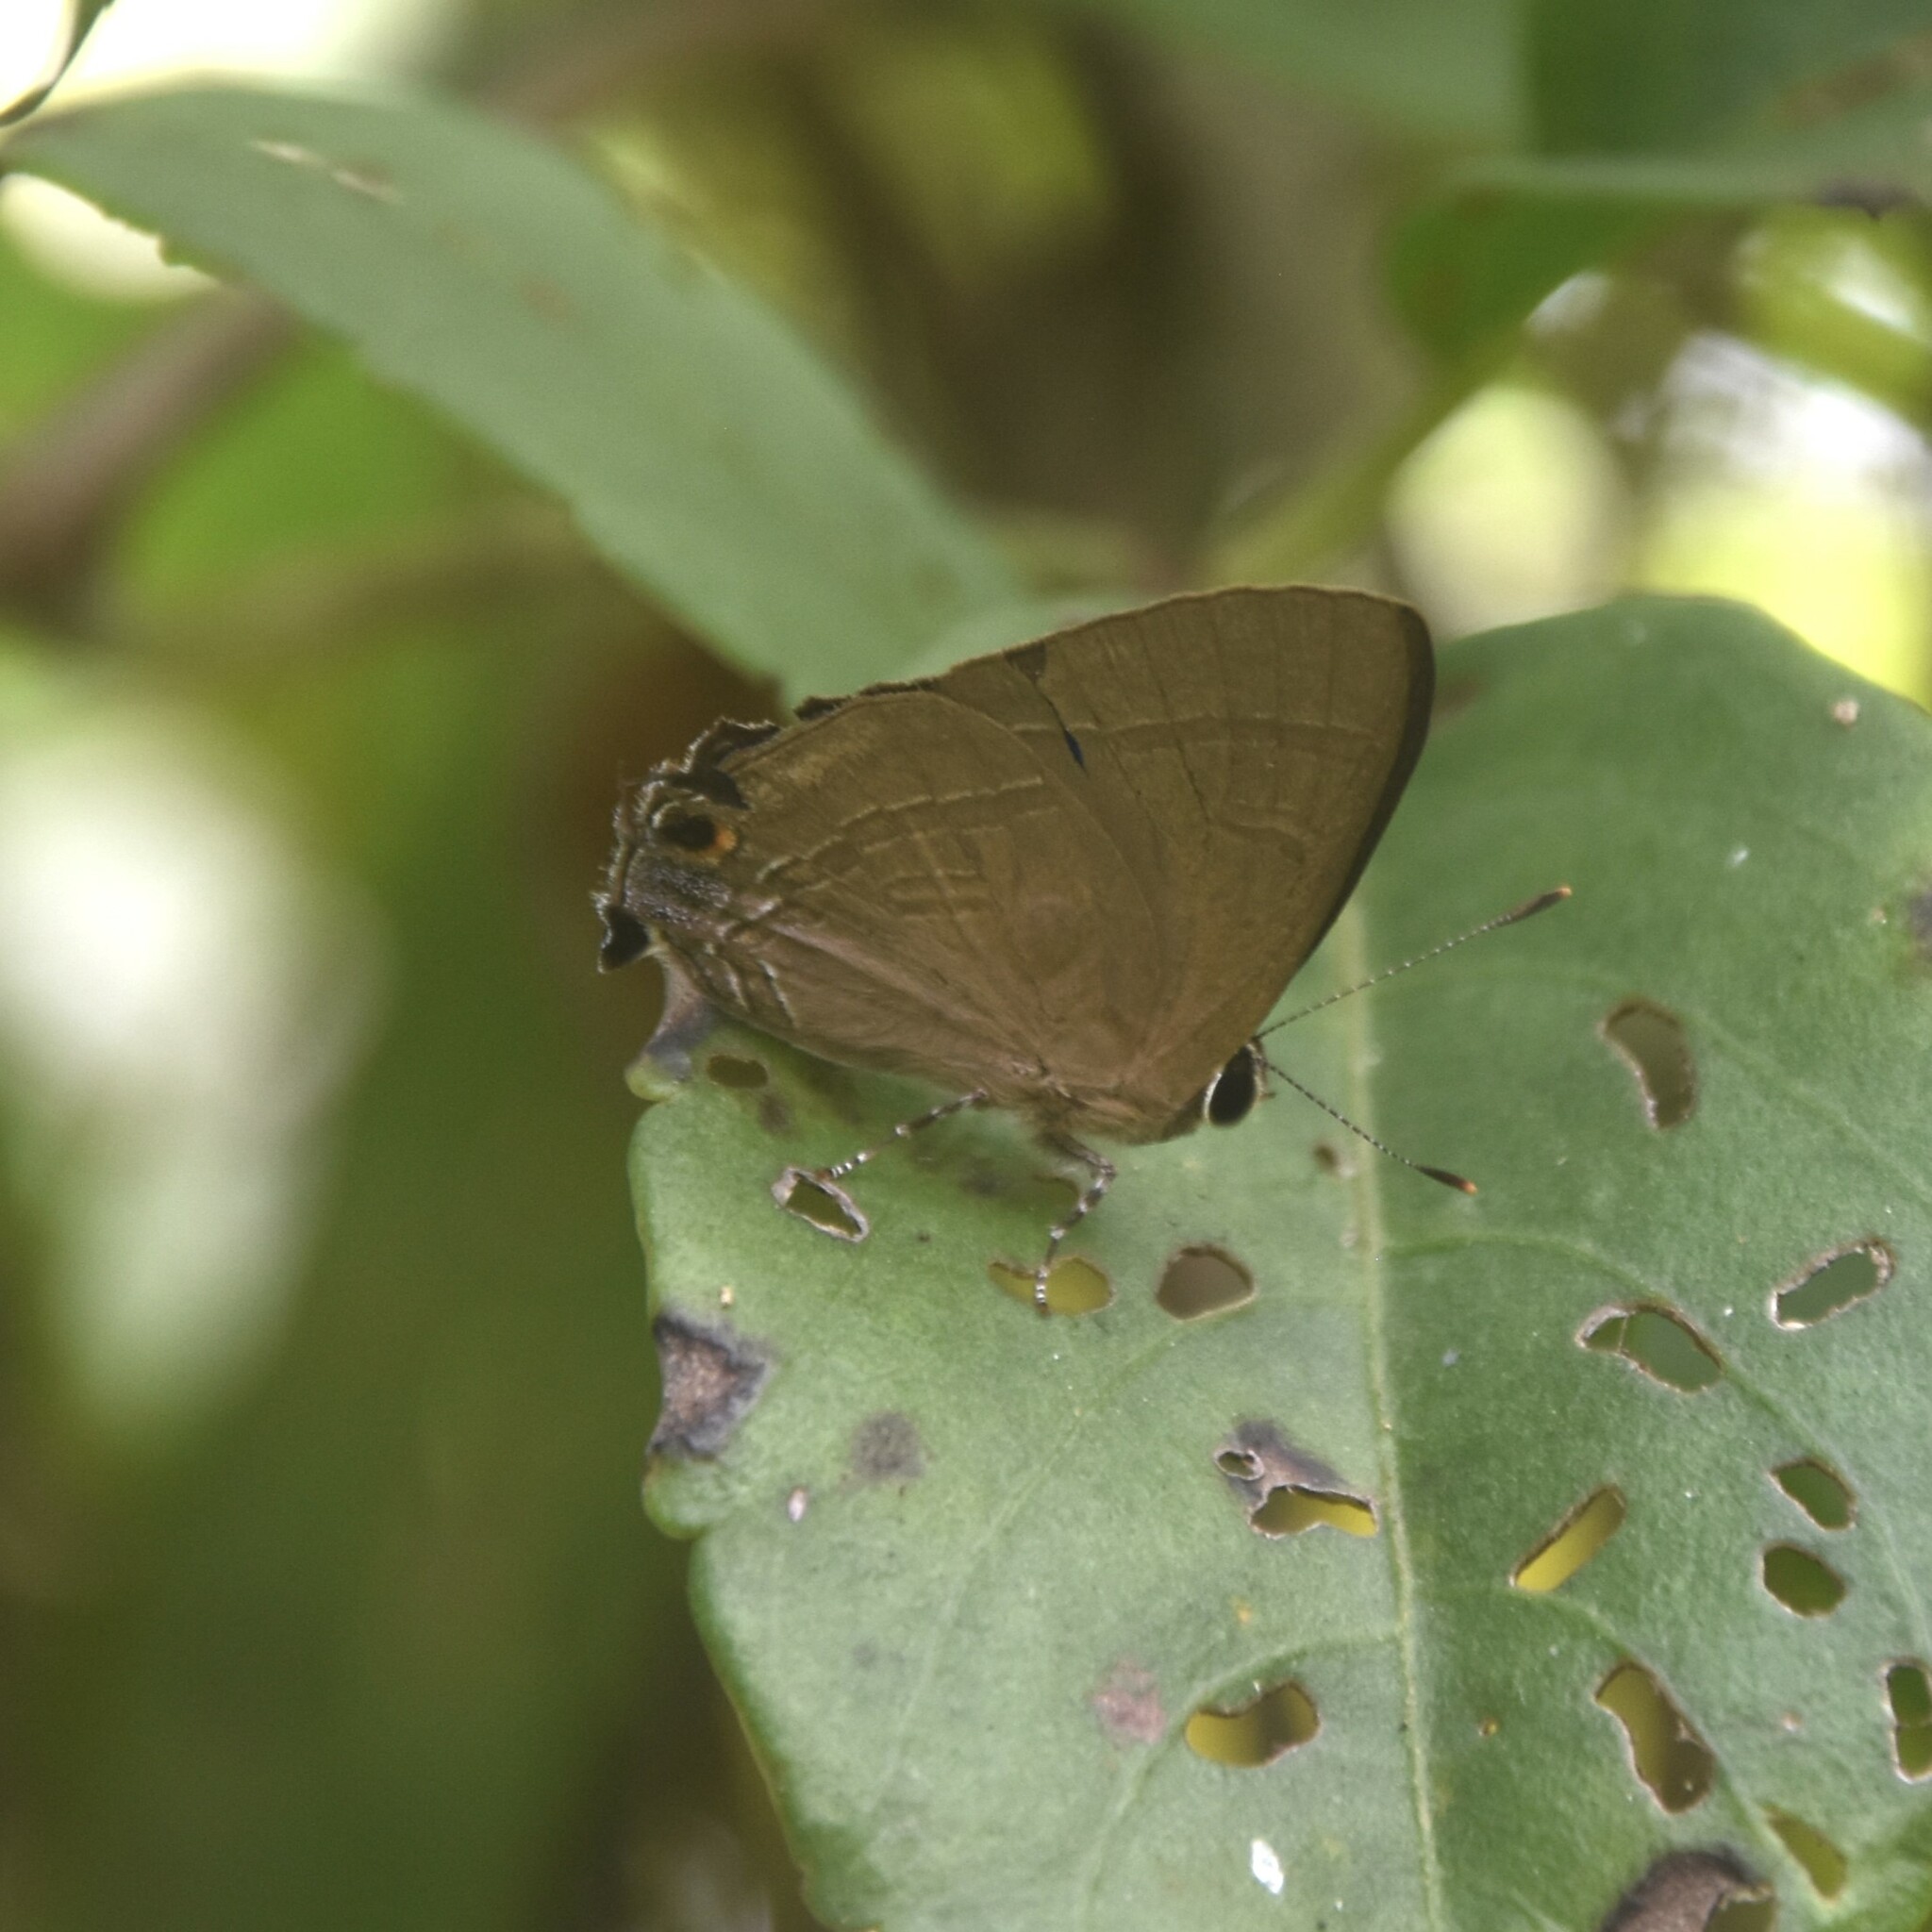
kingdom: Animalia
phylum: Arthropoda
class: Insecta
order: Lepidoptera
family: Lycaenidae
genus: Rapala
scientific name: Rapala manea
